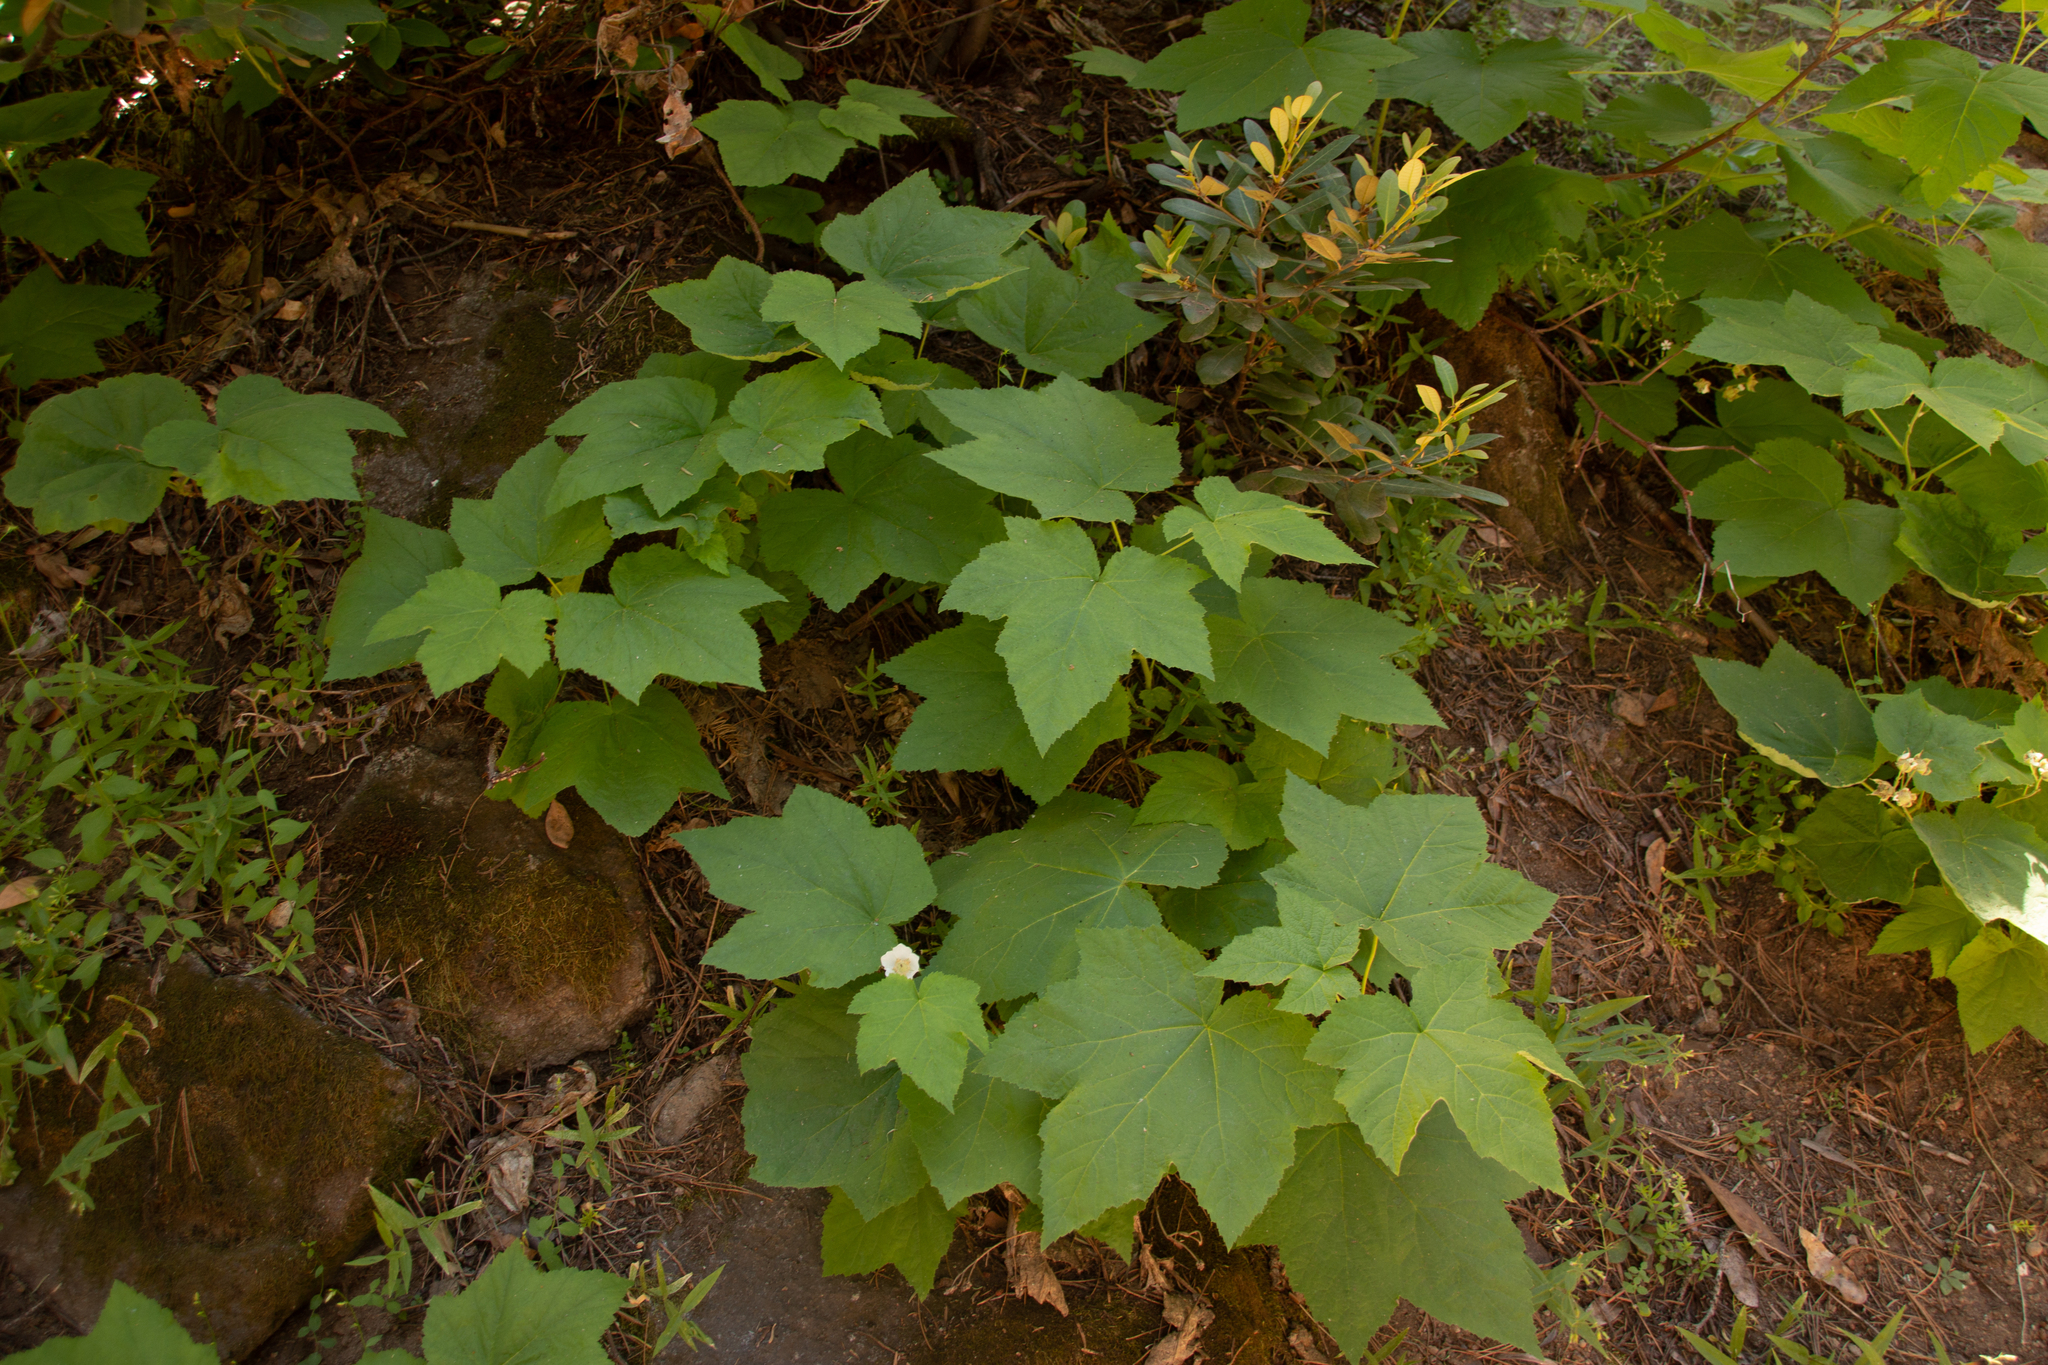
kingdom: Plantae
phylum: Tracheophyta
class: Magnoliopsida
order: Rosales
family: Rosaceae
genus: Rubus
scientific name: Rubus parviflorus
